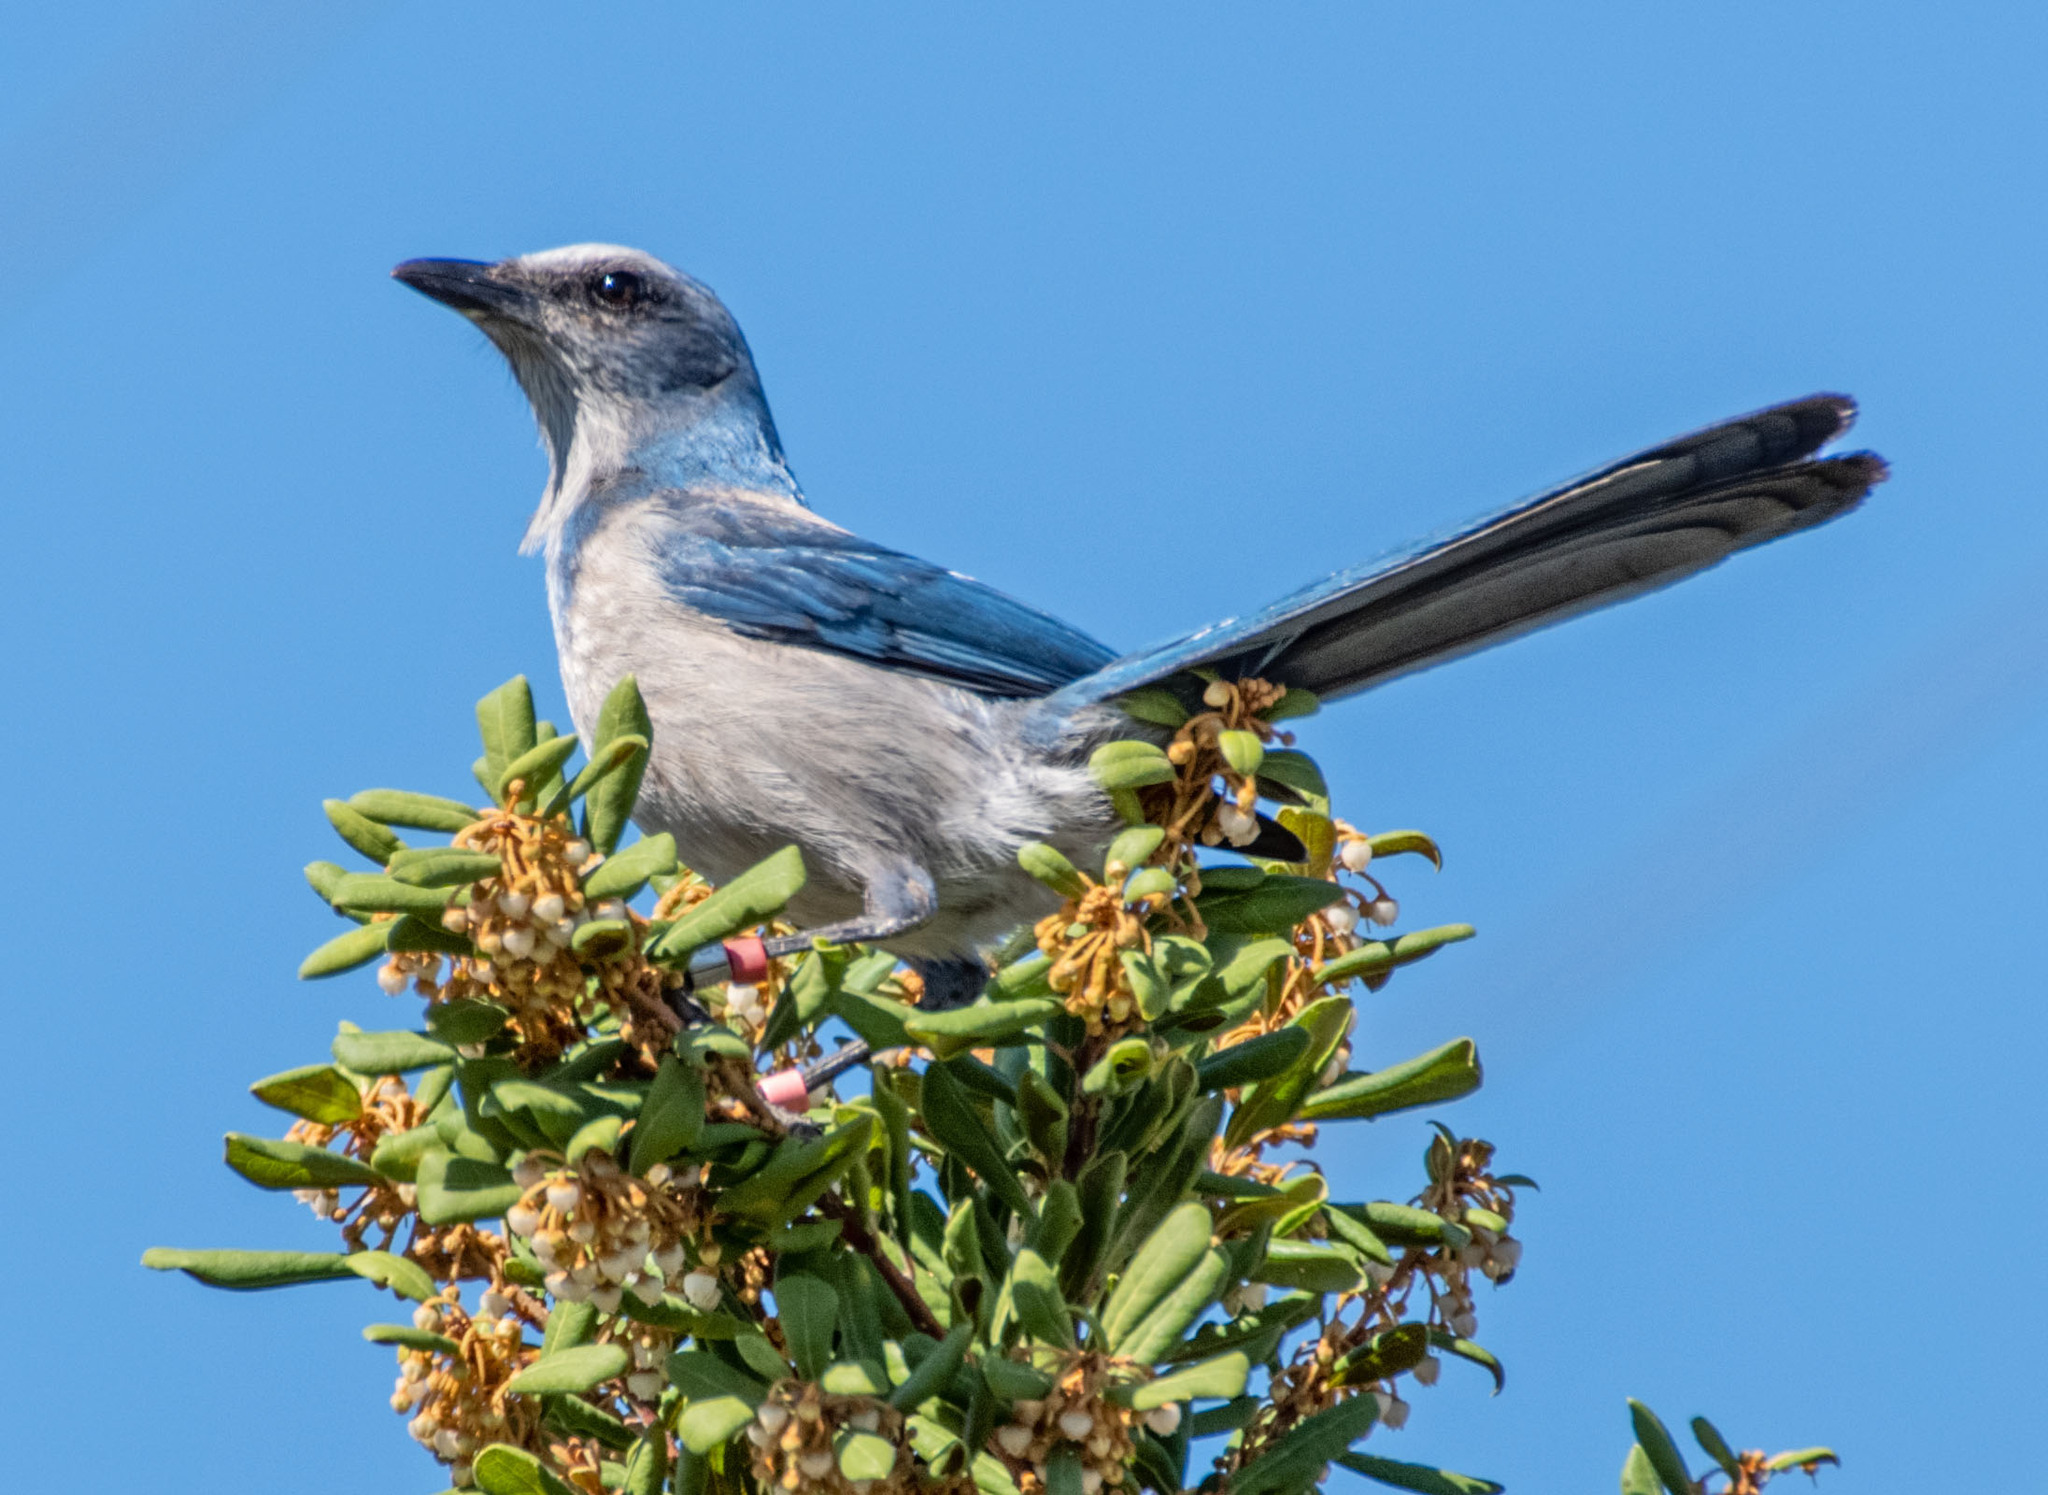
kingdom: Animalia
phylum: Chordata
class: Aves
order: Passeriformes
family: Corvidae
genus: Aphelocoma
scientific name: Aphelocoma coerulescens
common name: Florida scrub jay
